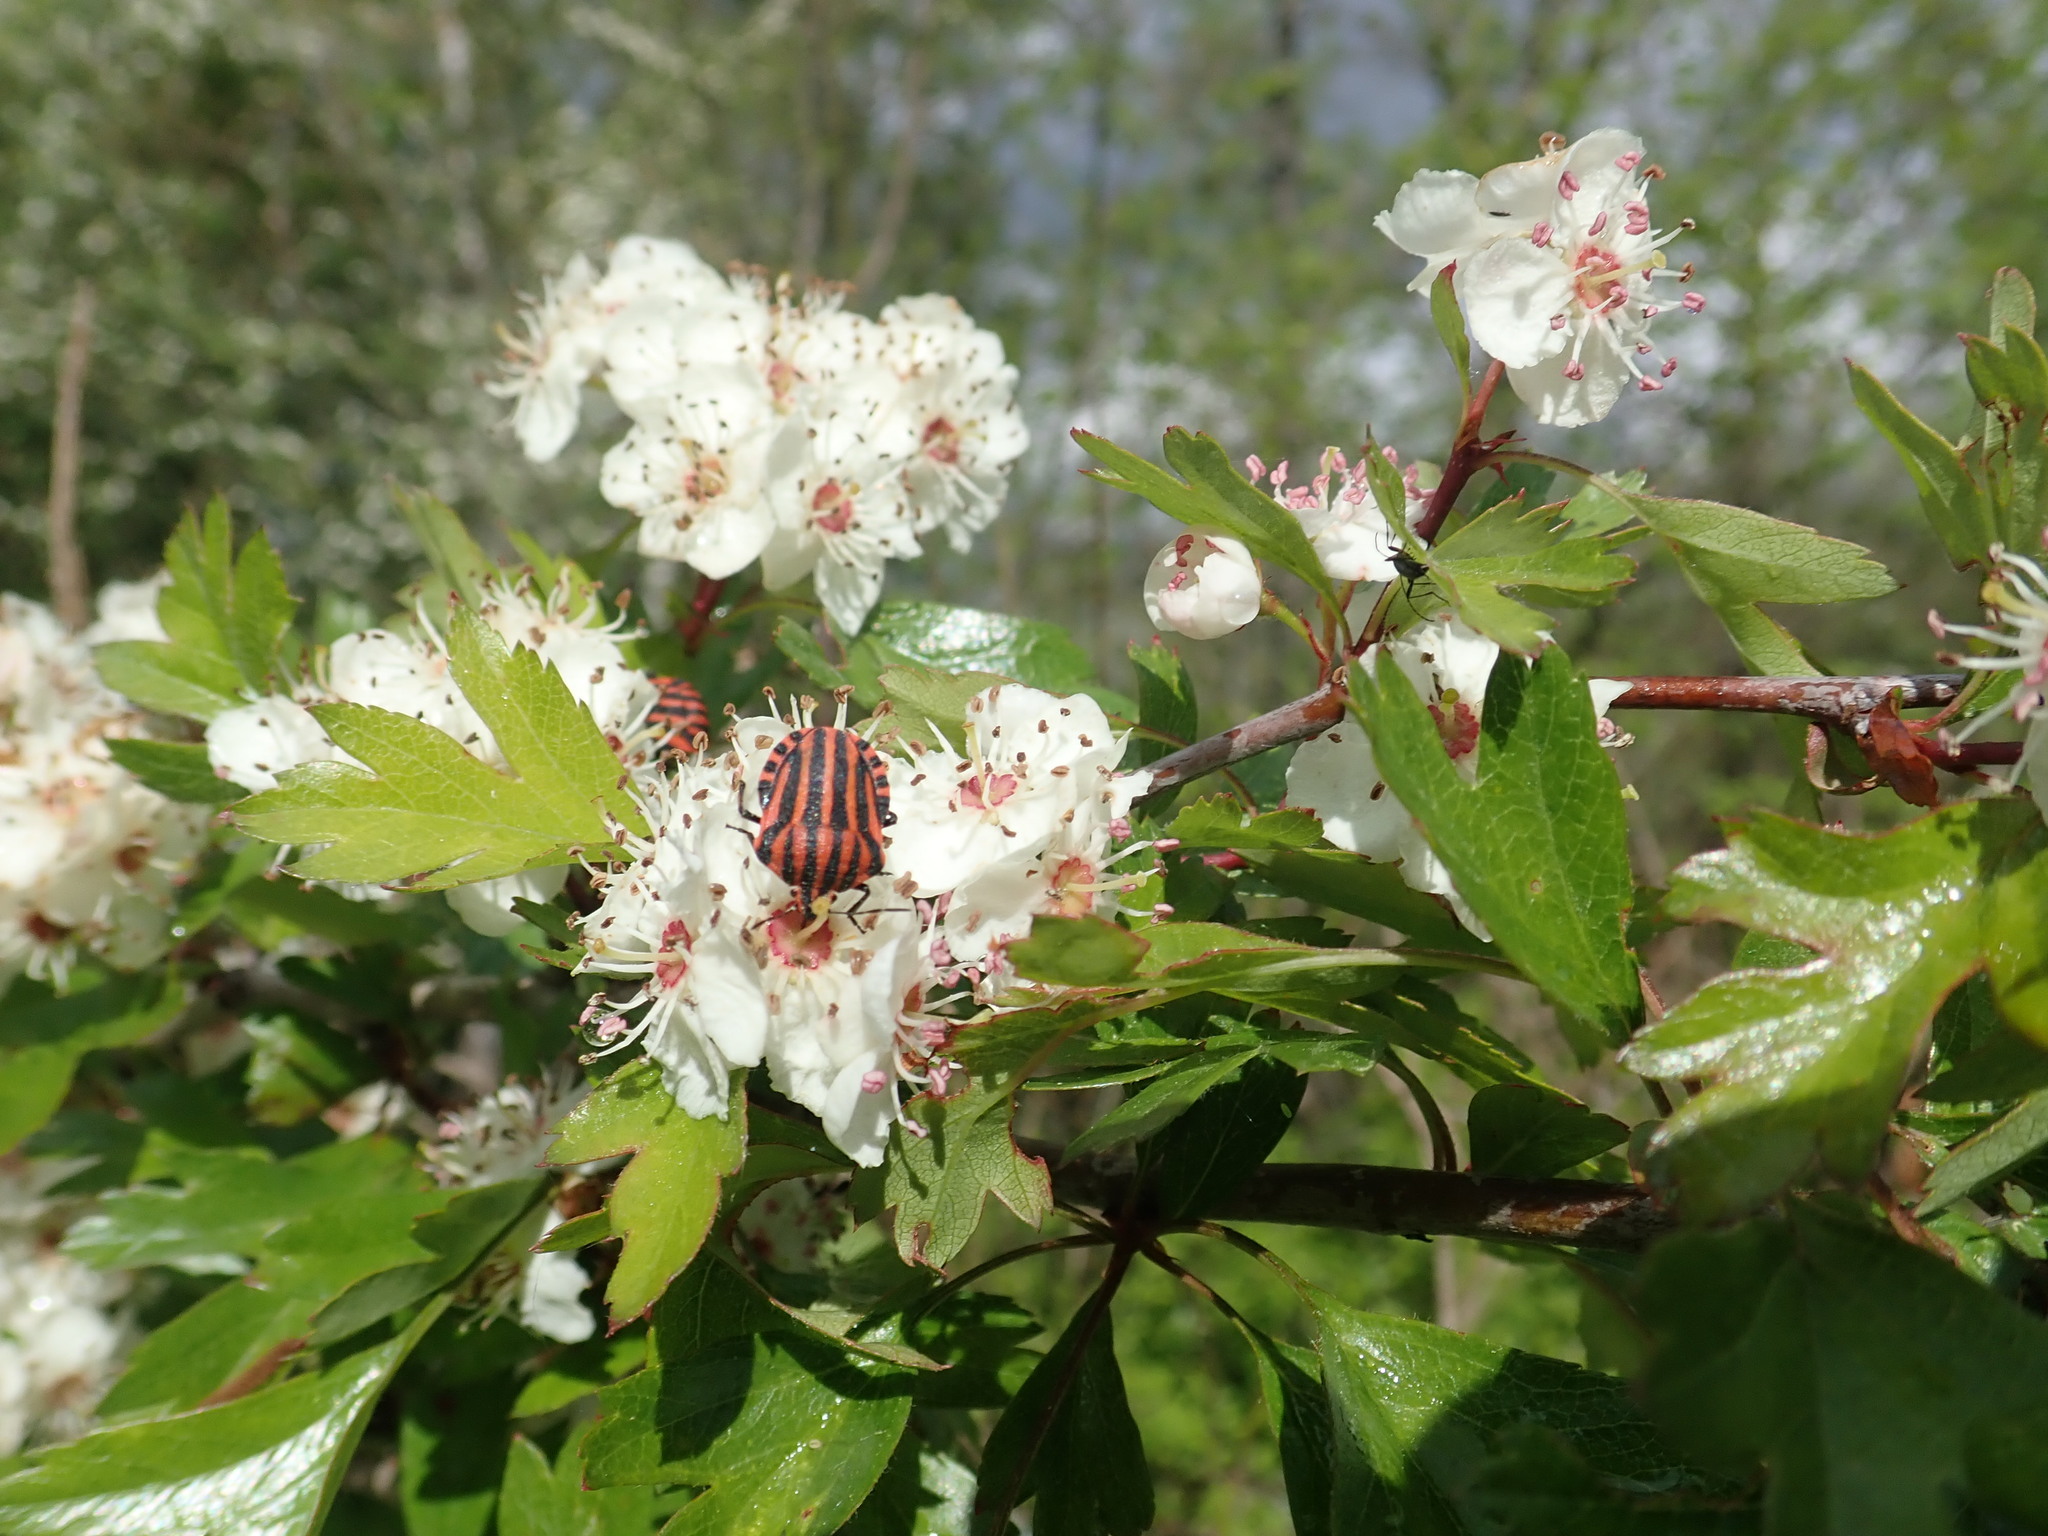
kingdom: Animalia
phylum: Arthropoda
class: Insecta
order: Hemiptera
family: Pentatomidae
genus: Graphosoma
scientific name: Graphosoma italicum
